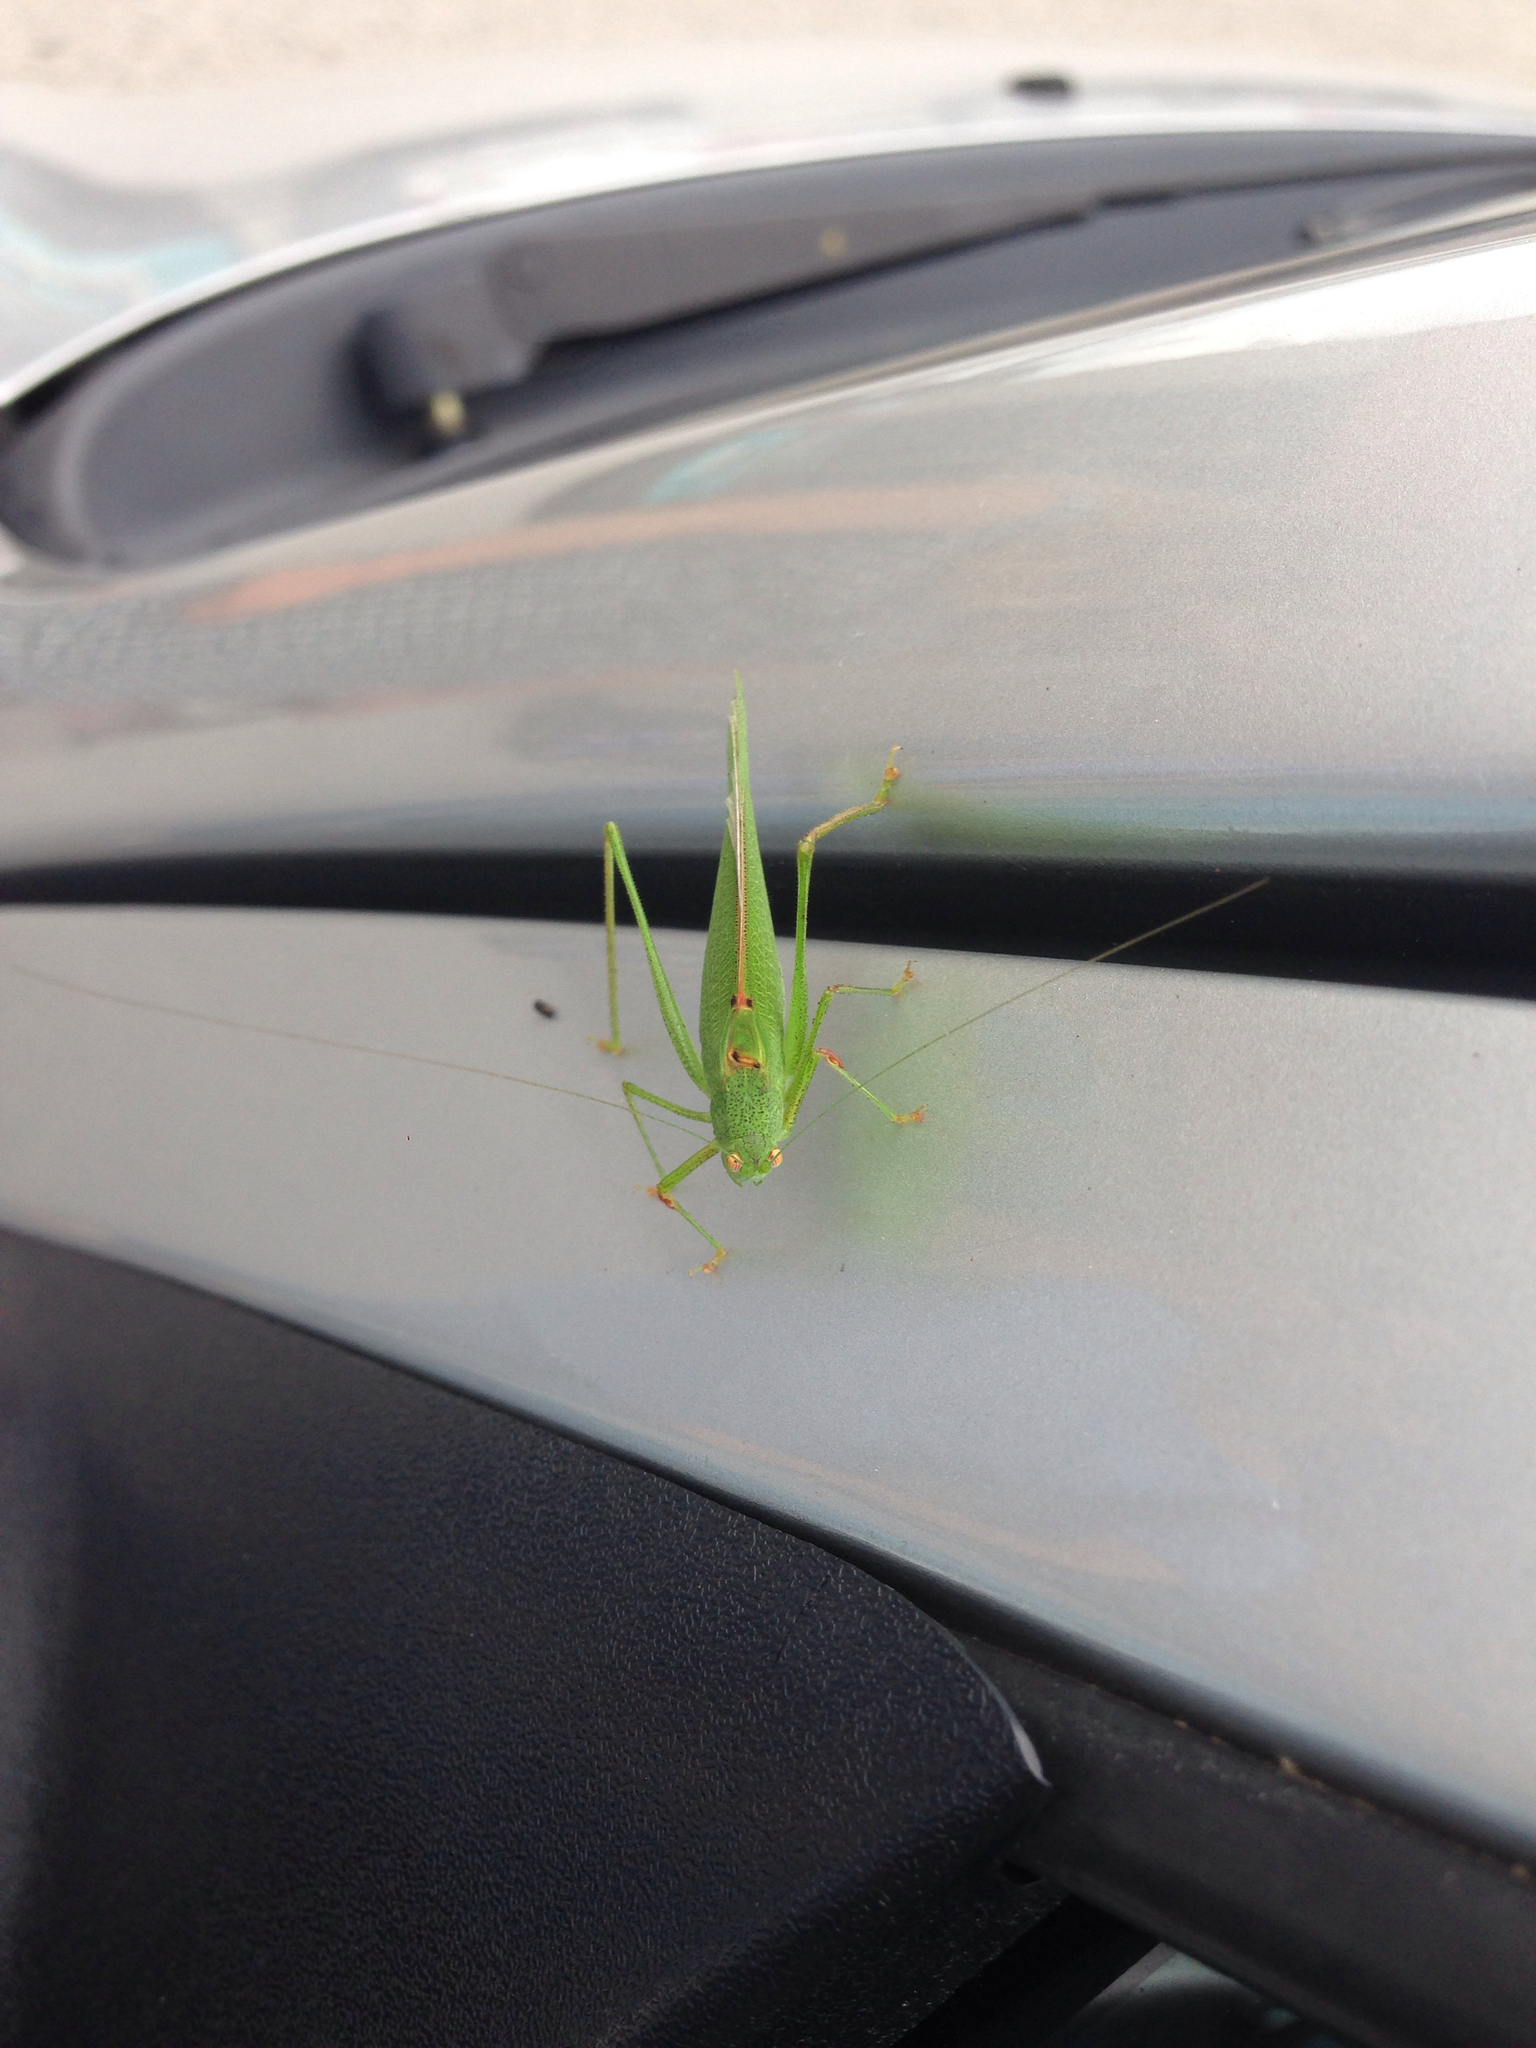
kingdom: Animalia
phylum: Arthropoda
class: Insecta
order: Orthoptera
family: Tettigoniidae
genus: Phaneroptera
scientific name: Phaneroptera nana
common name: Southern sickle bush-cricket
